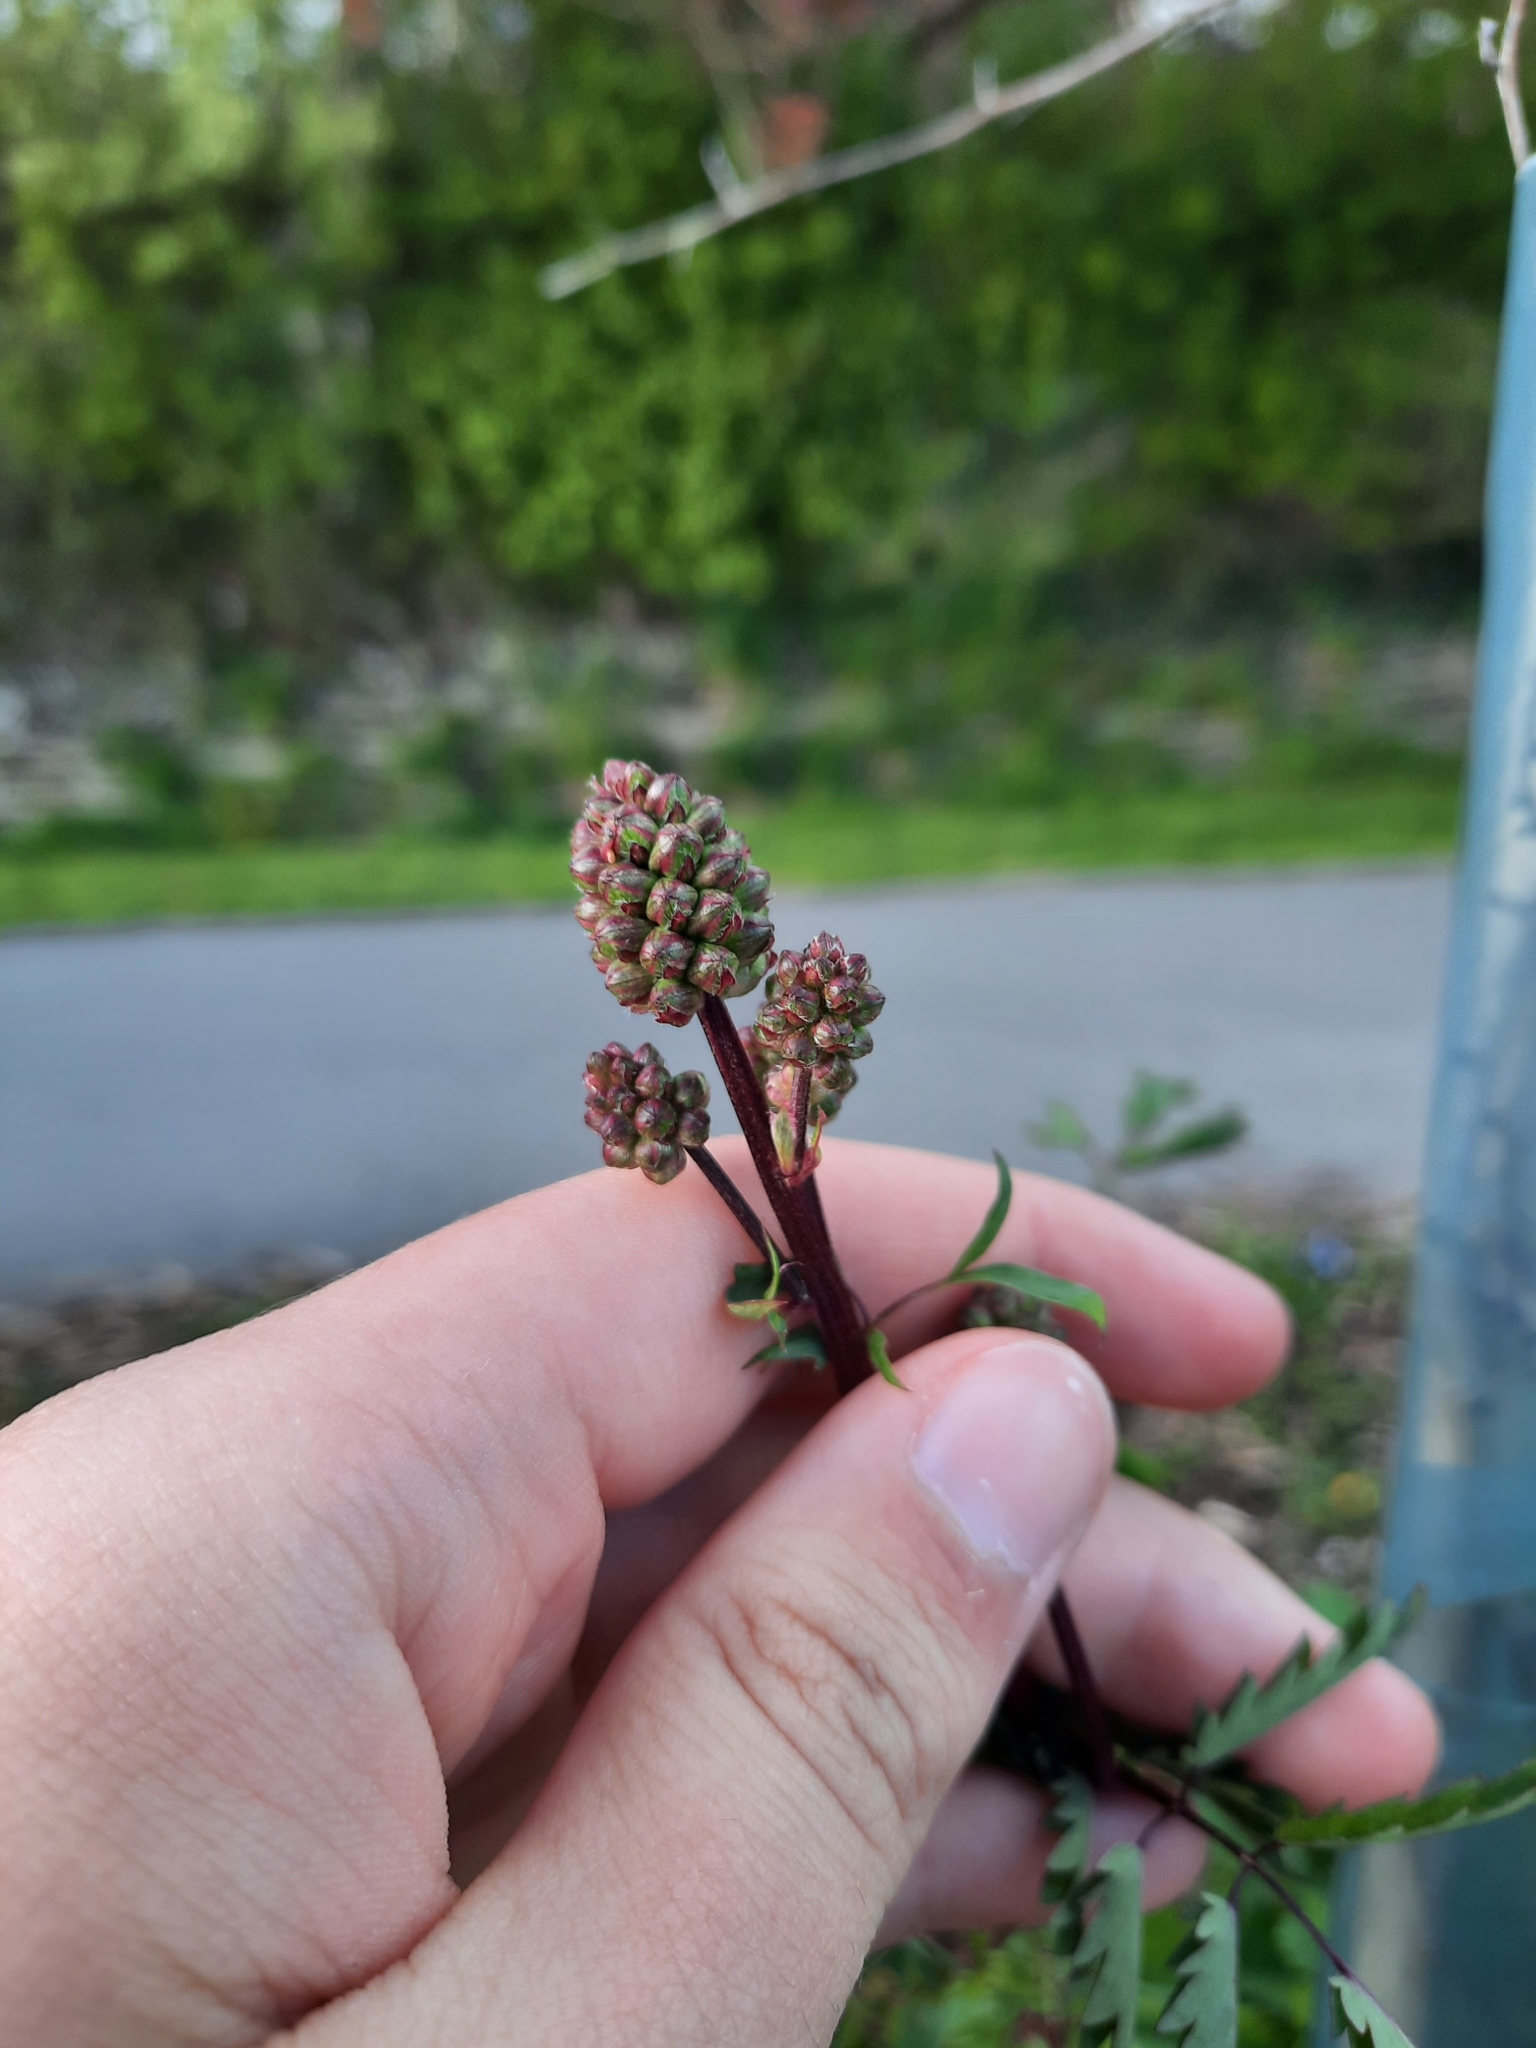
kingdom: Plantae
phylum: Tracheophyta
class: Magnoliopsida
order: Rosales
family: Rosaceae
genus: Poterium
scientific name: Poterium sanguisorba
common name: Salad burnet
